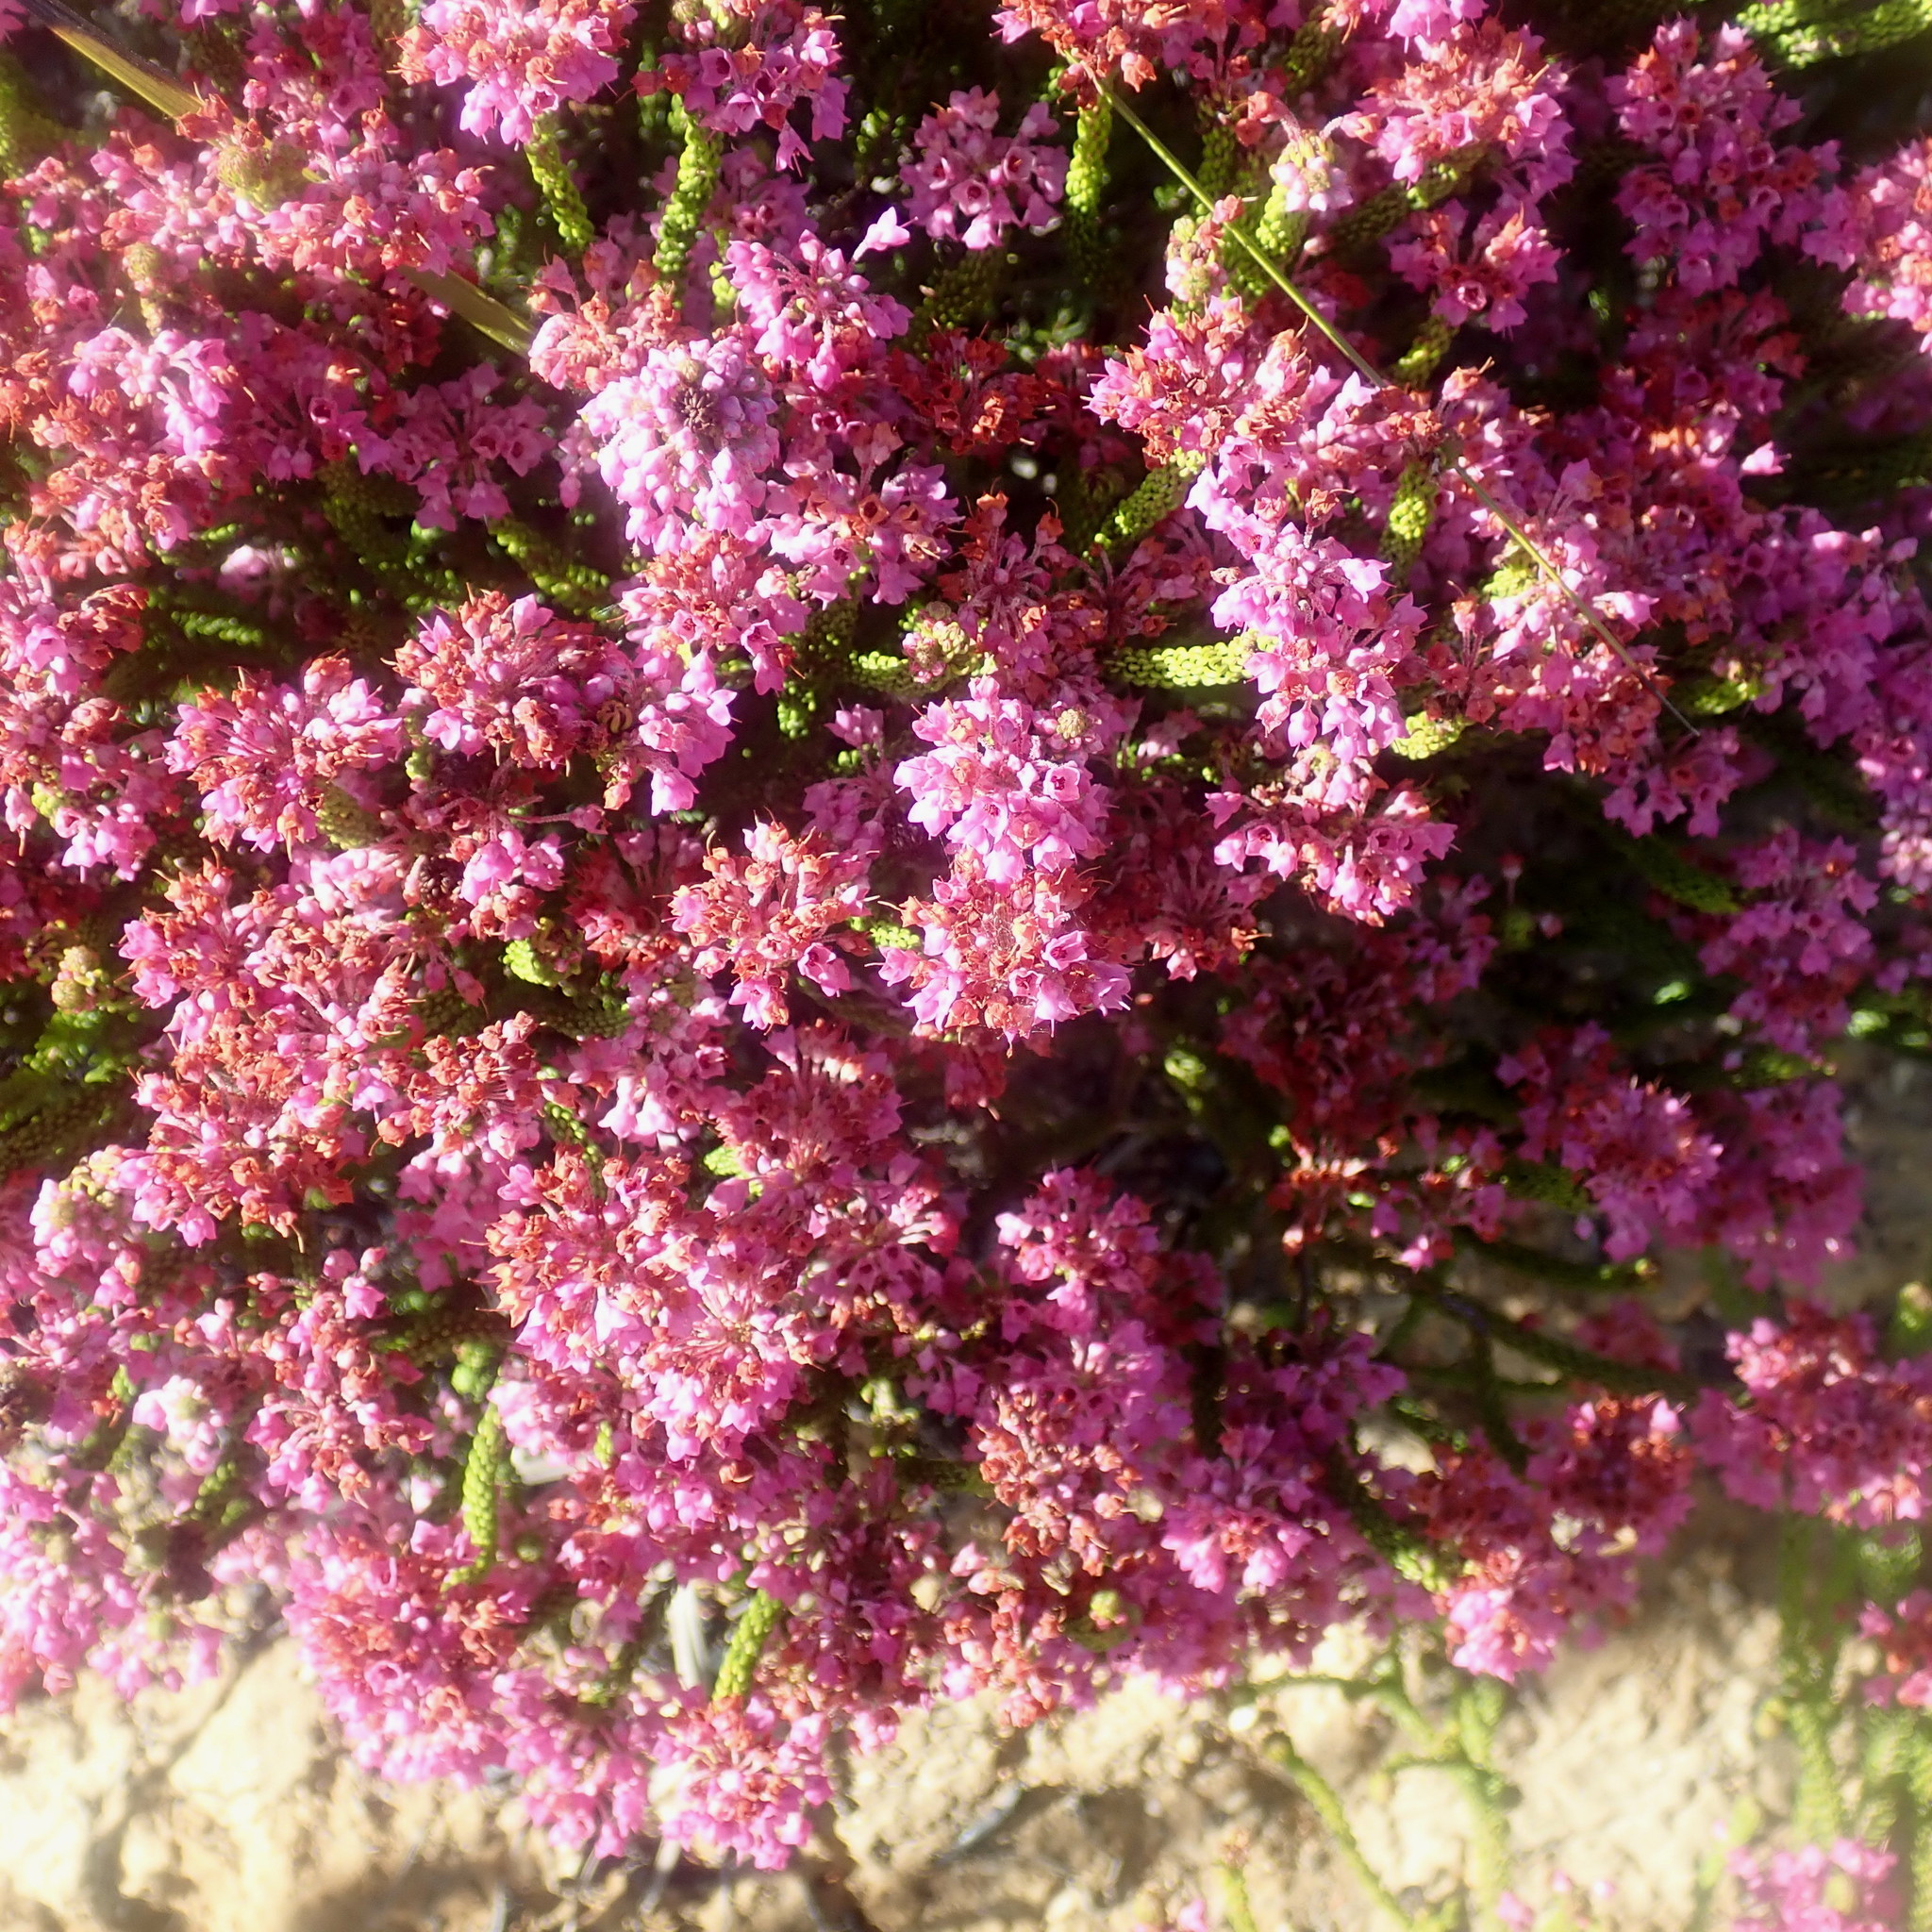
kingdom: Plantae
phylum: Tracheophyta
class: Magnoliopsida
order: Ericales
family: Ericaceae
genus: Erica
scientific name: Erica seriphiifolia
